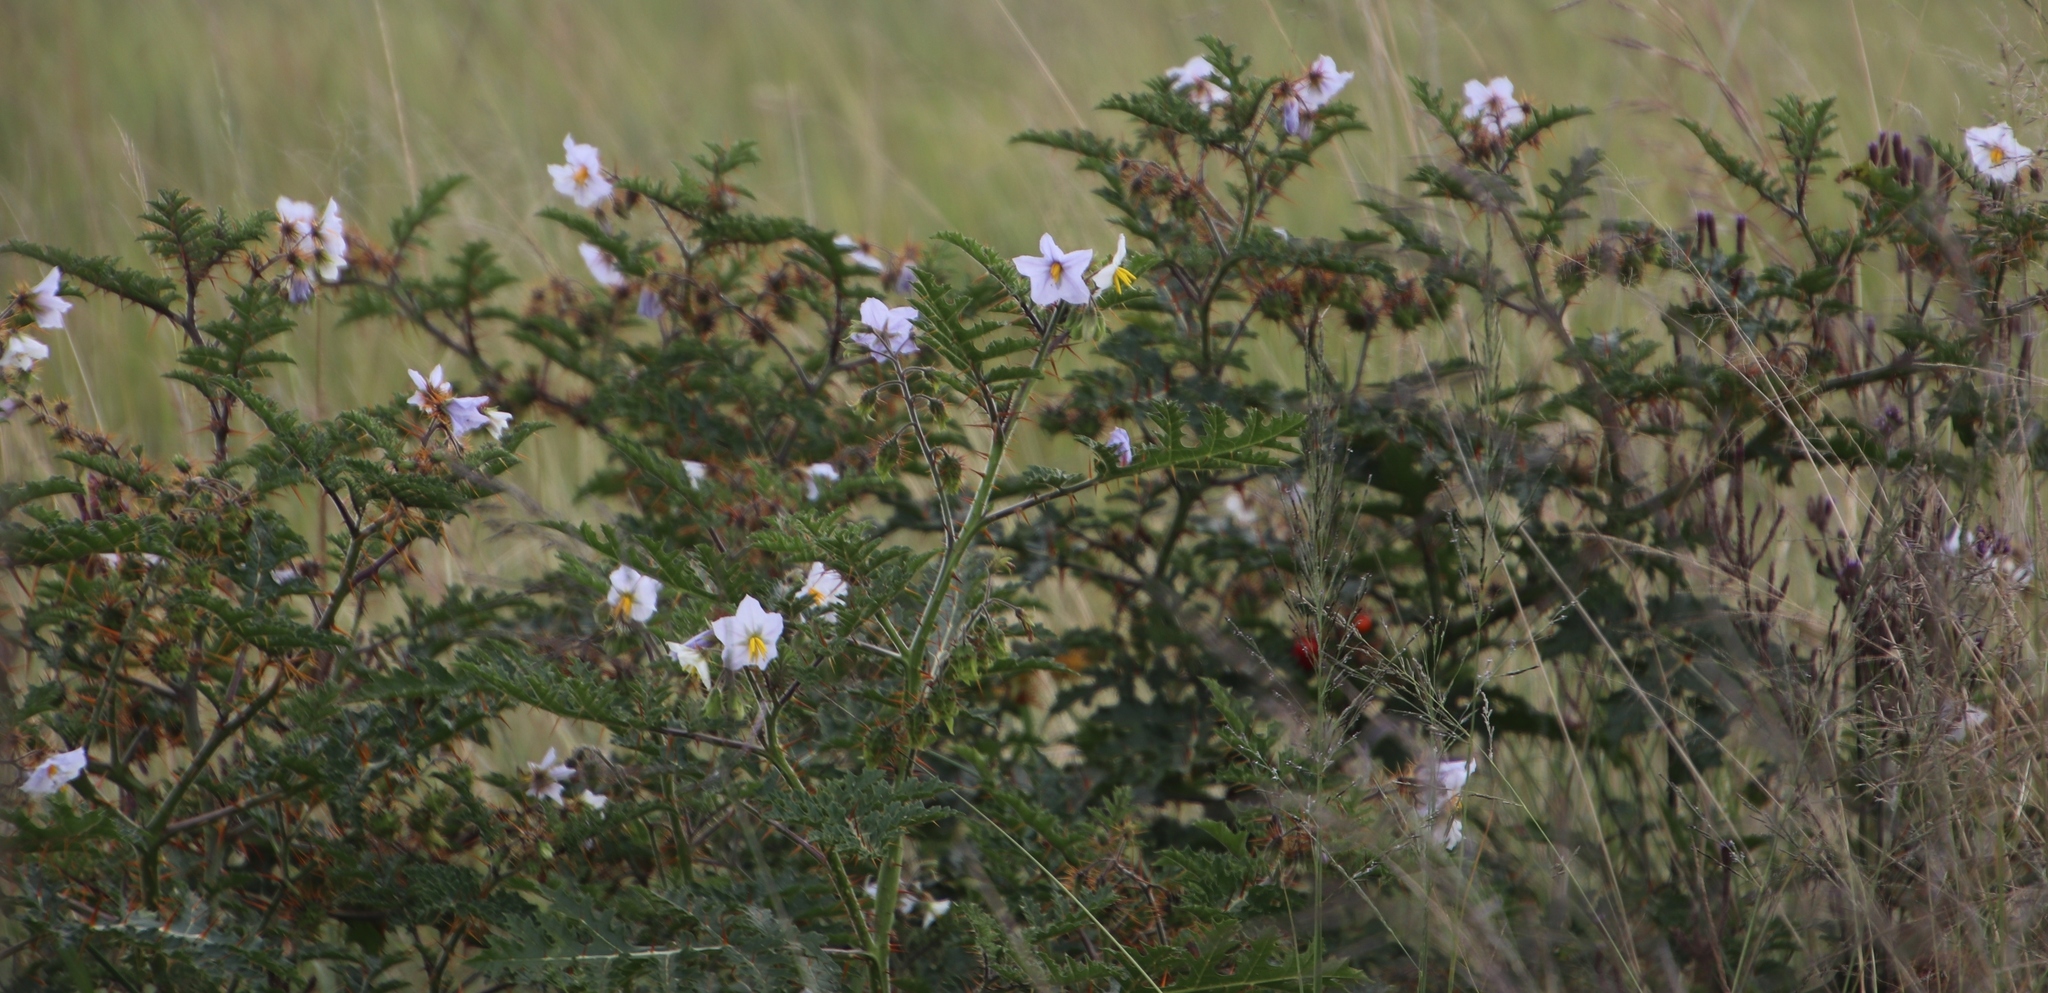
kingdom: Plantae
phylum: Tracheophyta
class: Magnoliopsida
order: Solanales
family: Solanaceae
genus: Solanum
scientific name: Solanum sisymbriifolium
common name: Red buffalo-bur
